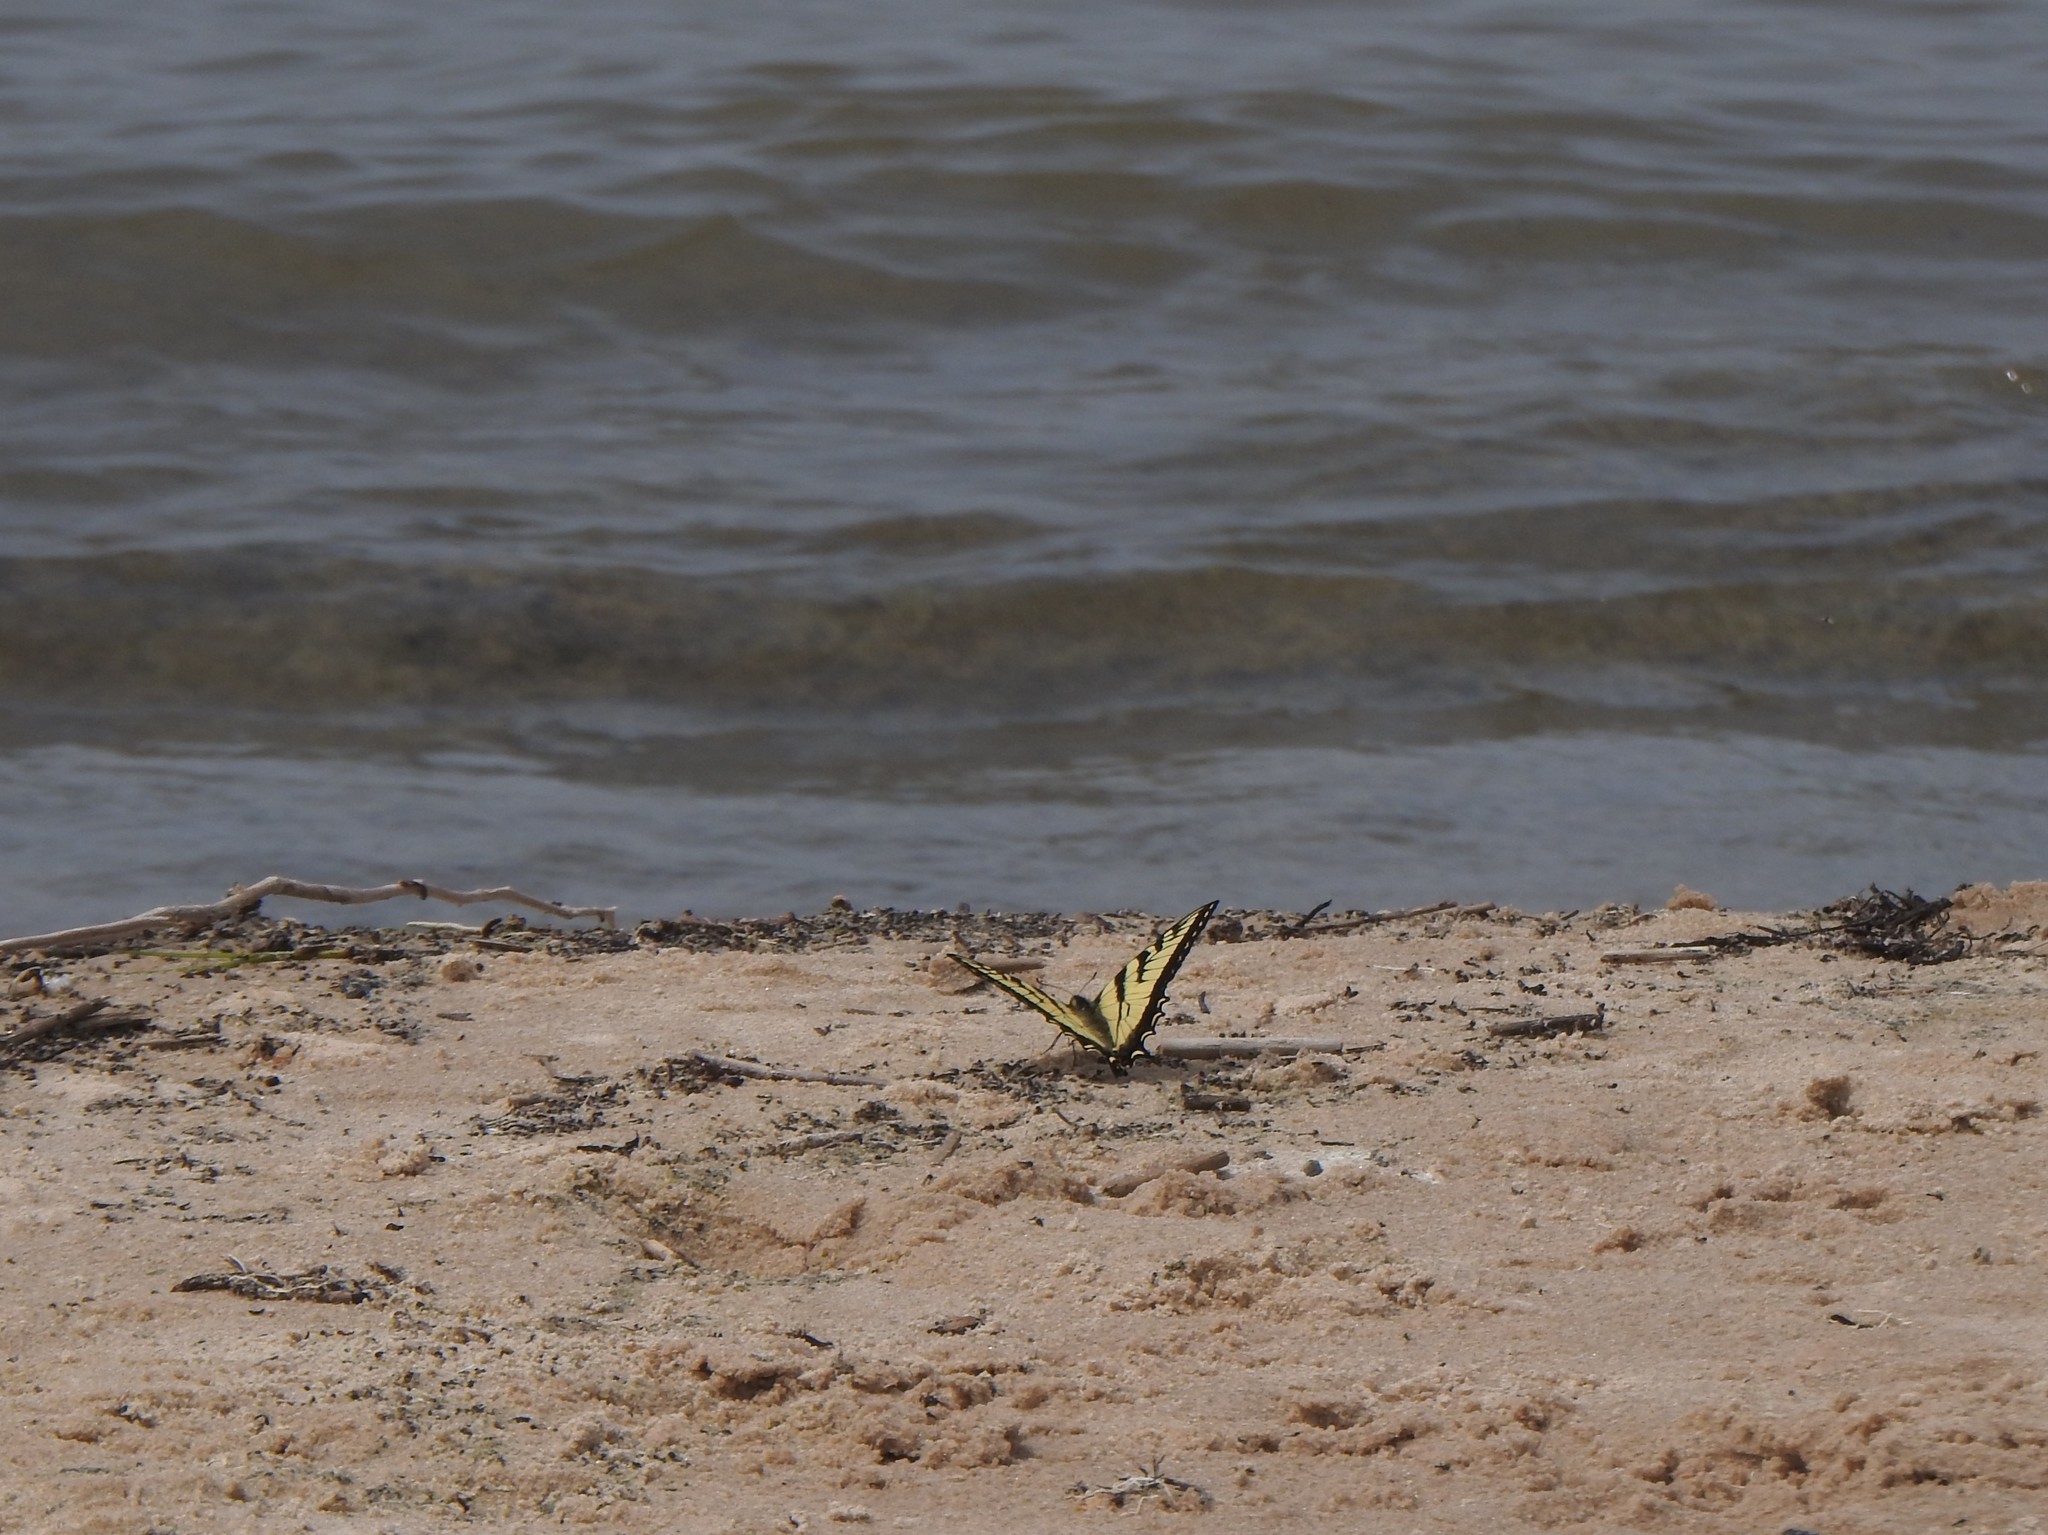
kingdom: Animalia
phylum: Arthropoda
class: Insecta
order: Lepidoptera
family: Papilionidae
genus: Papilio
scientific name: Papilio canadensis
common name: Canadian tiger swallowtail
